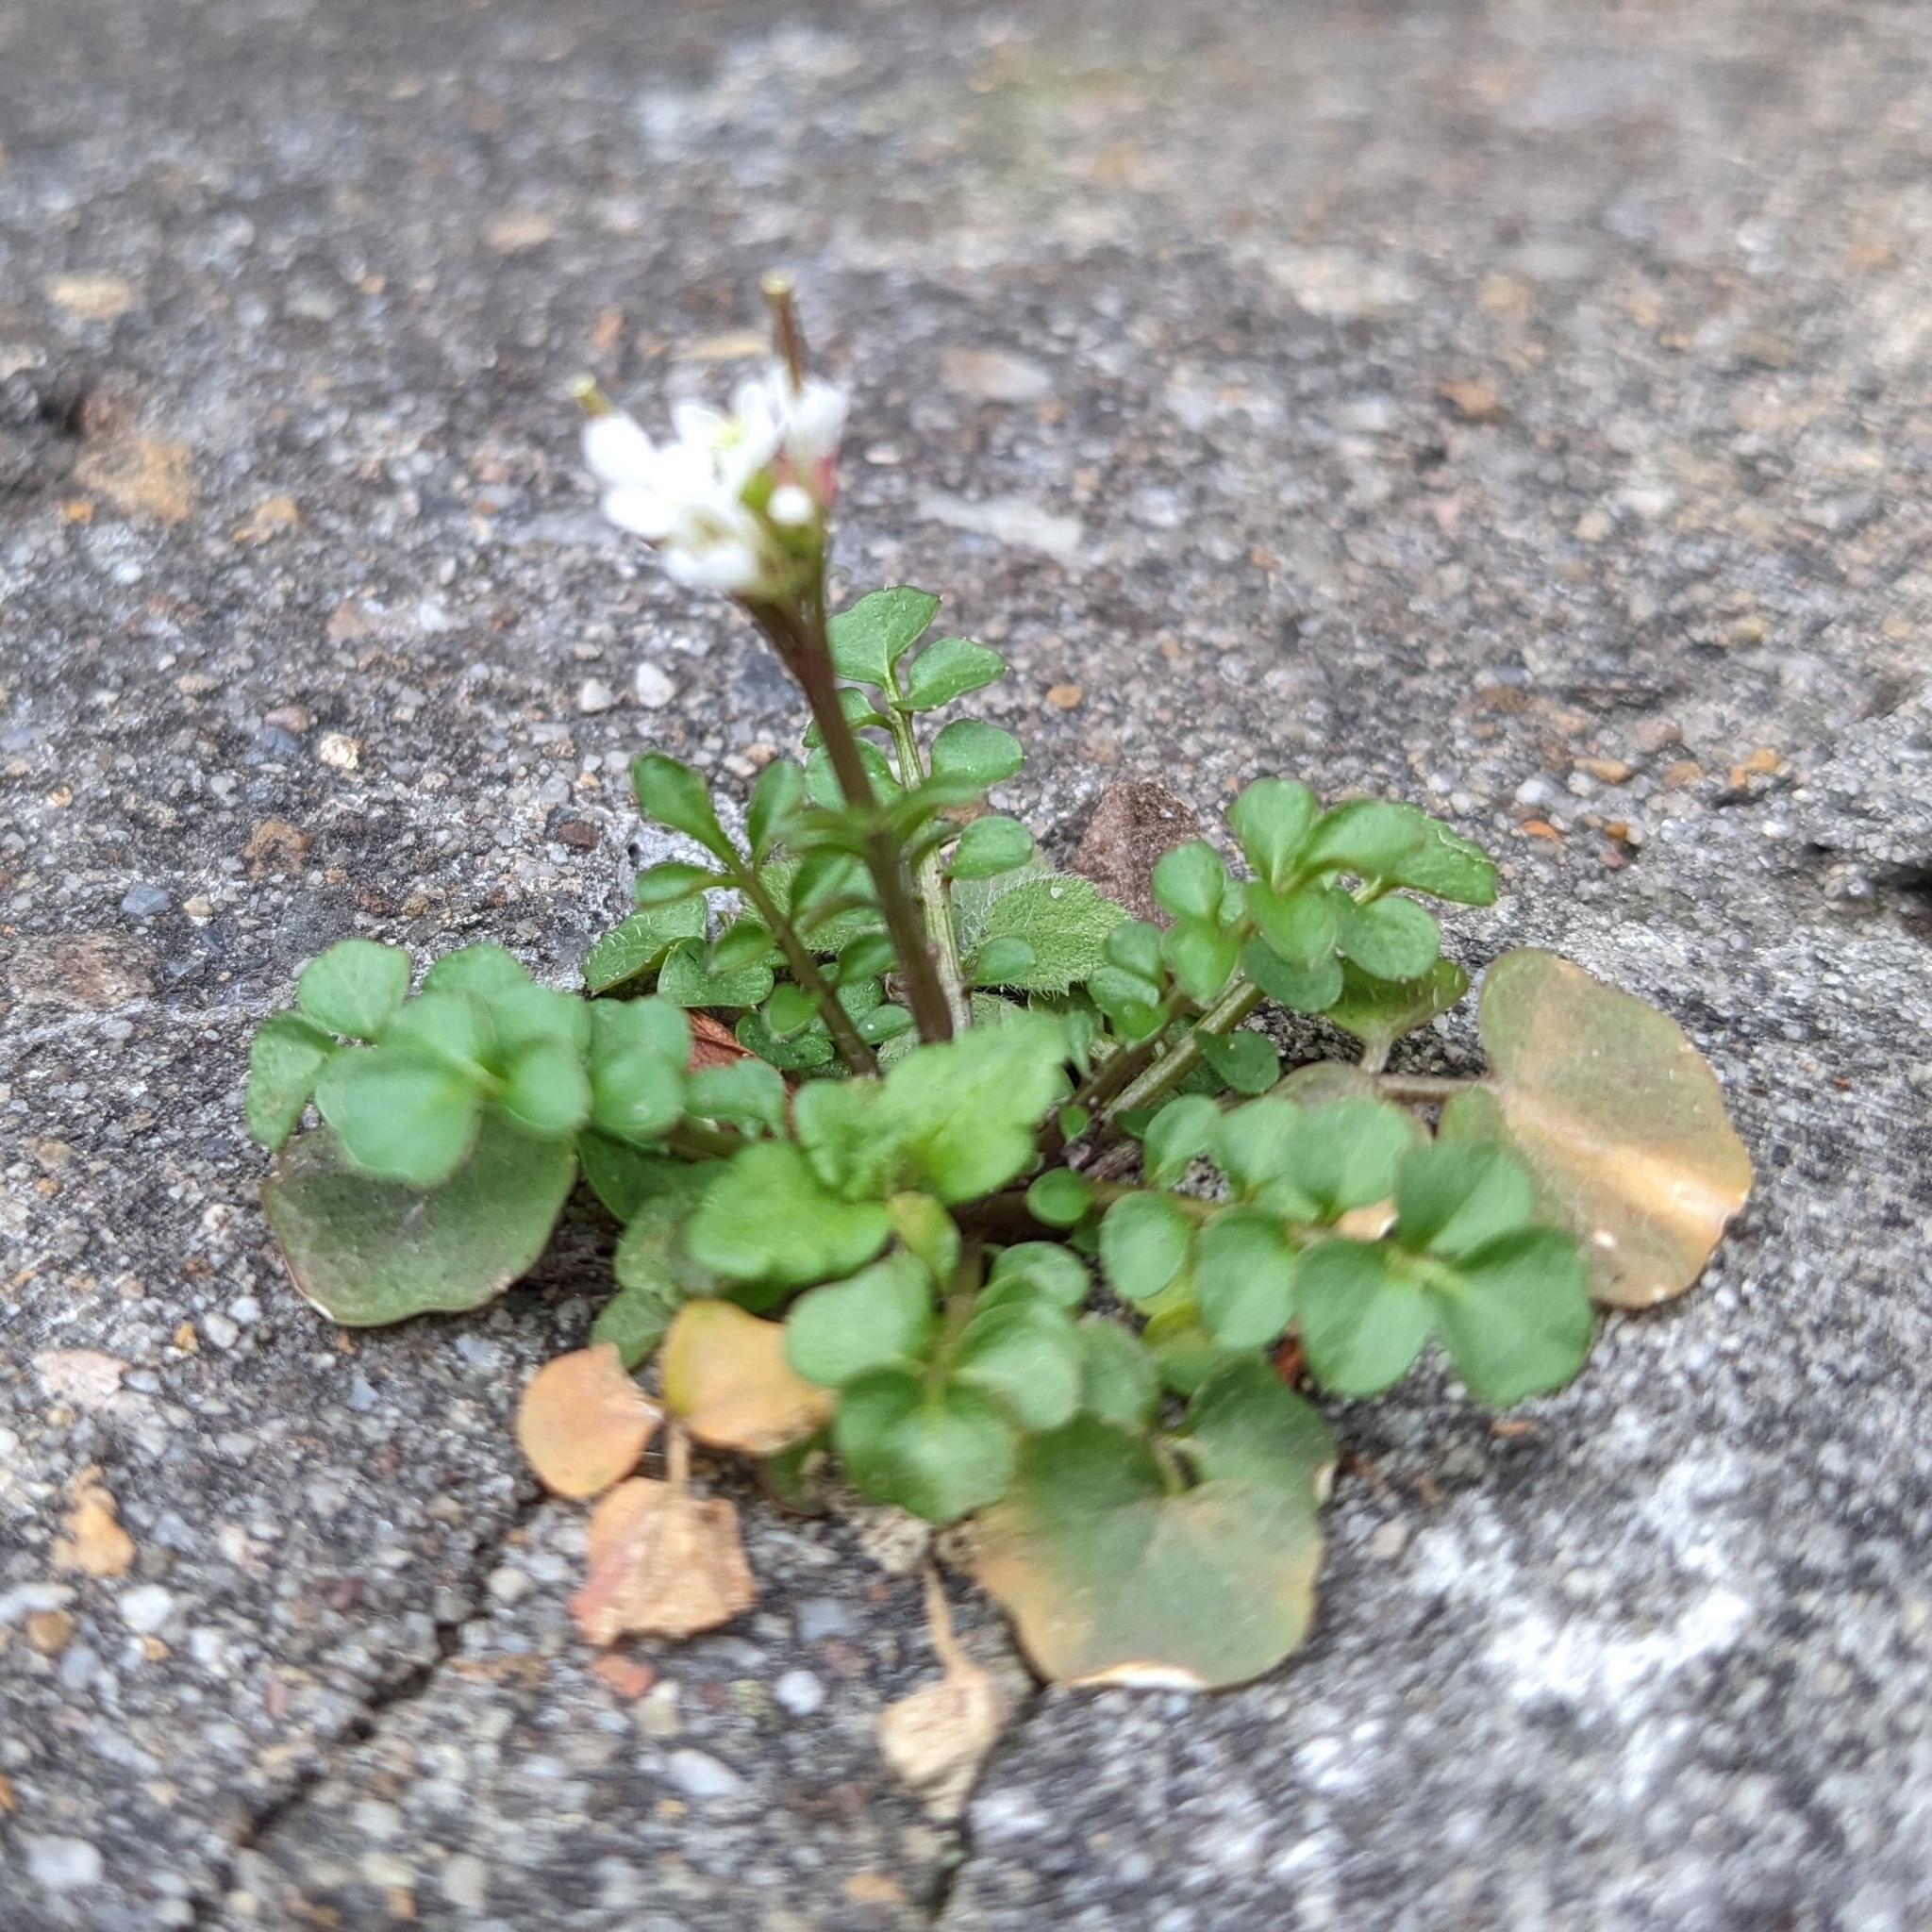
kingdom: Plantae
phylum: Tracheophyta
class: Magnoliopsida
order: Brassicales
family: Brassicaceae
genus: Cardamine
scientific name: Cardamine hirsuta
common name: Hairy bittercress
